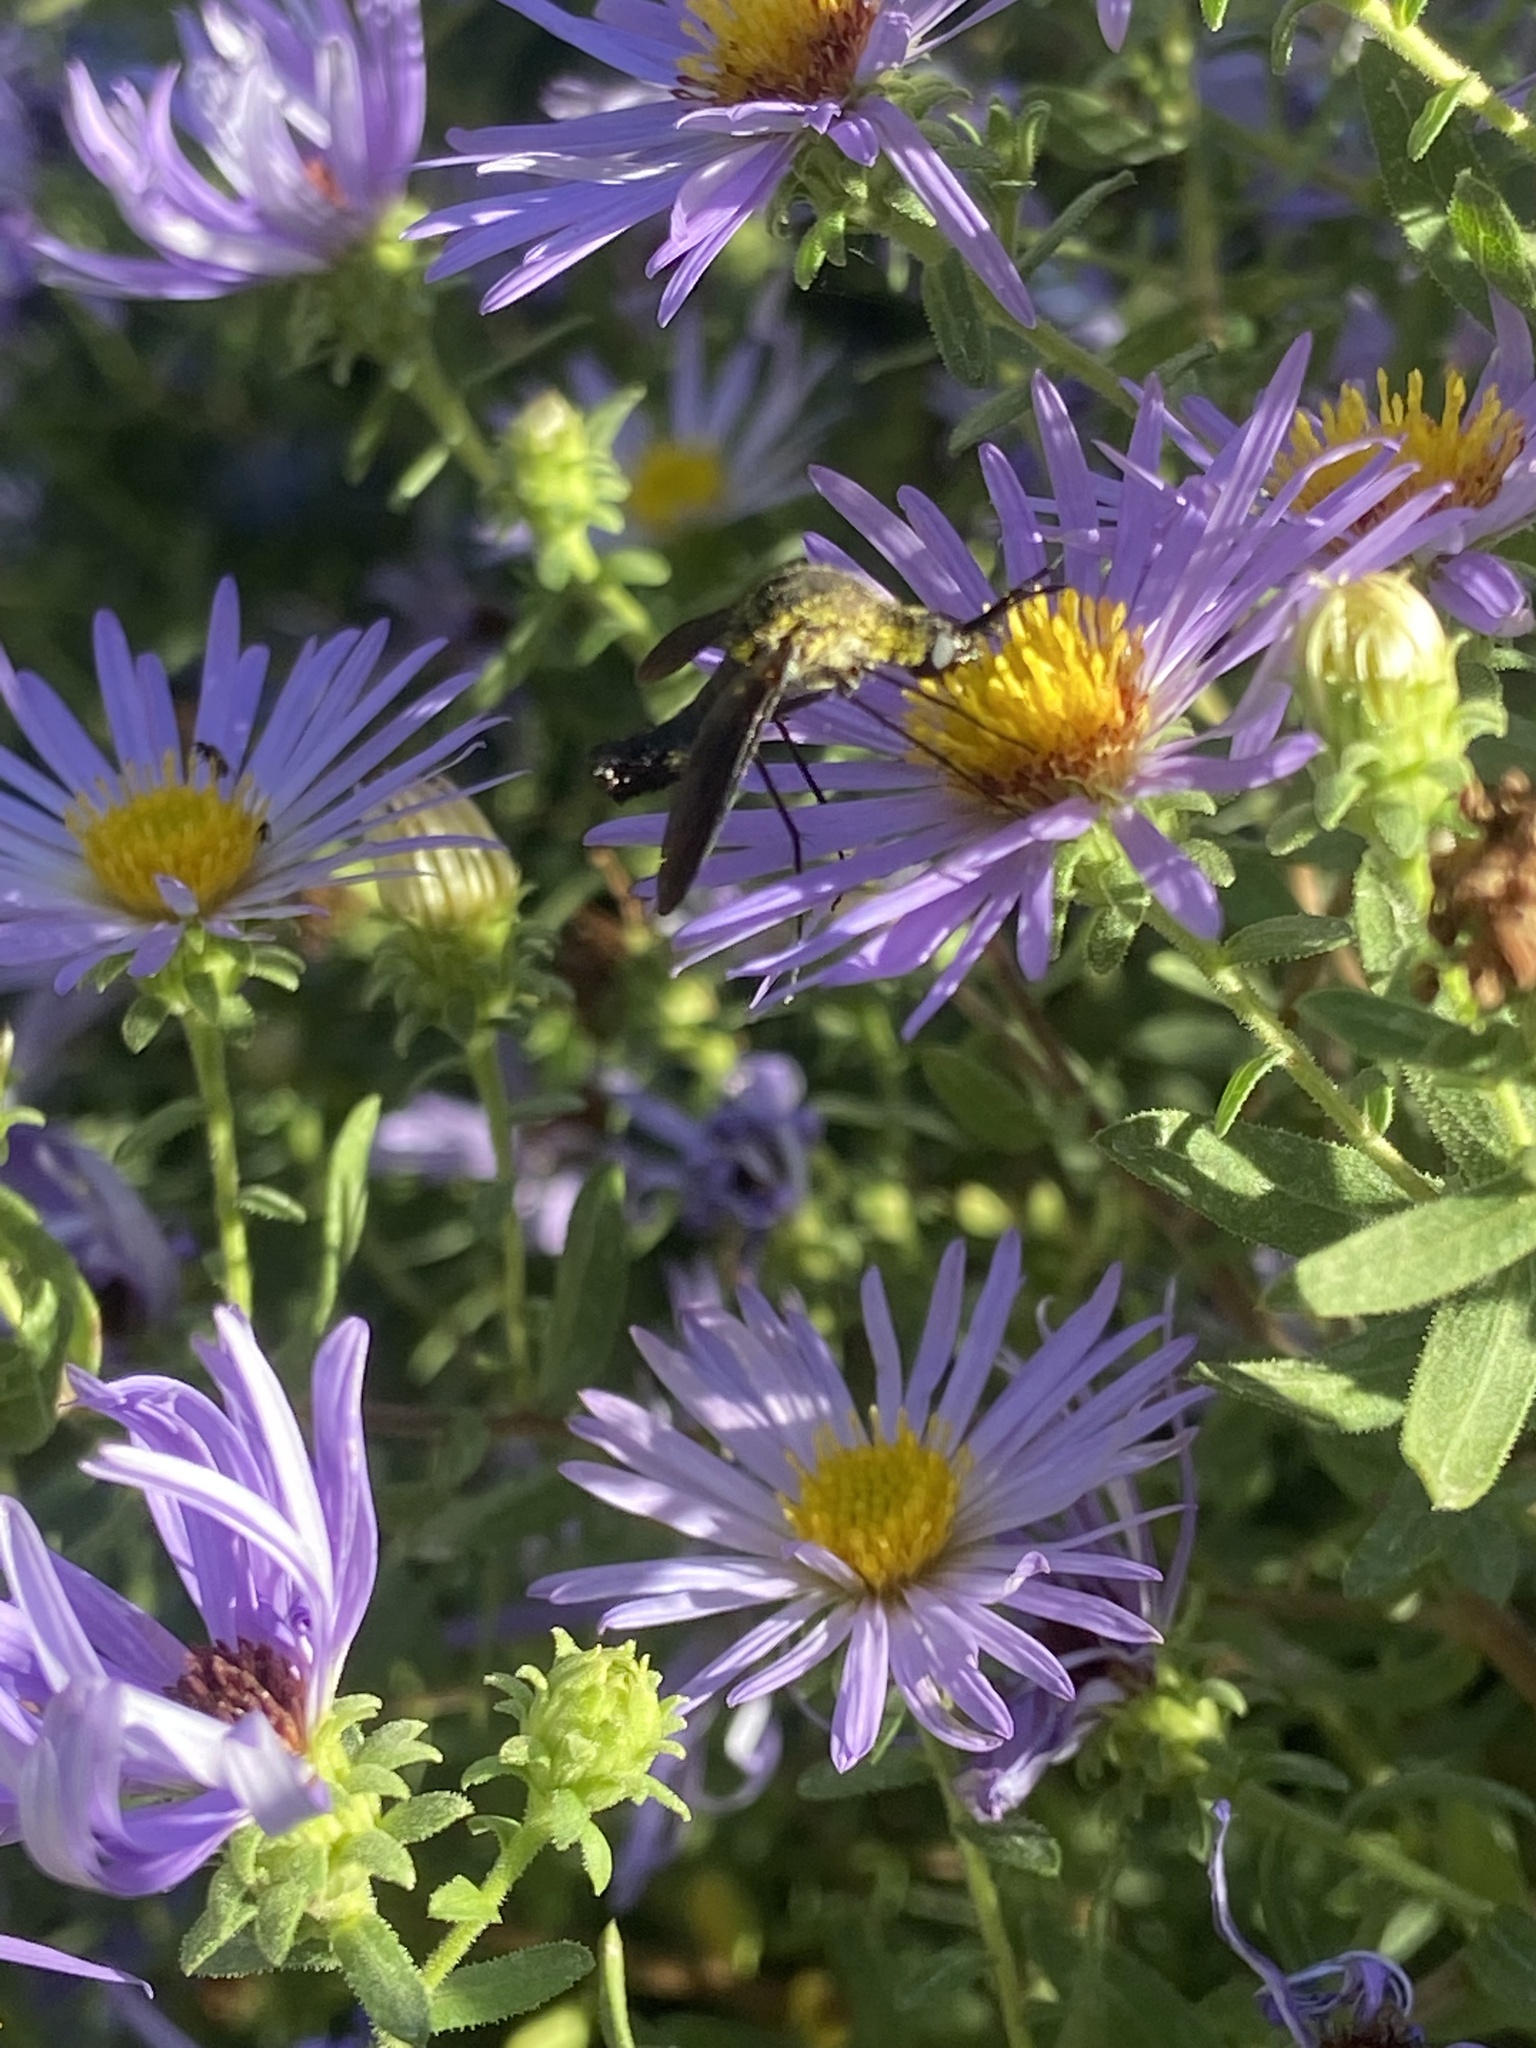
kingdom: Animalia
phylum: Arthropoda
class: Insecta
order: Diptera
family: Bombyliidae
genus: Lepidophora
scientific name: Lepidophora lepidocera
